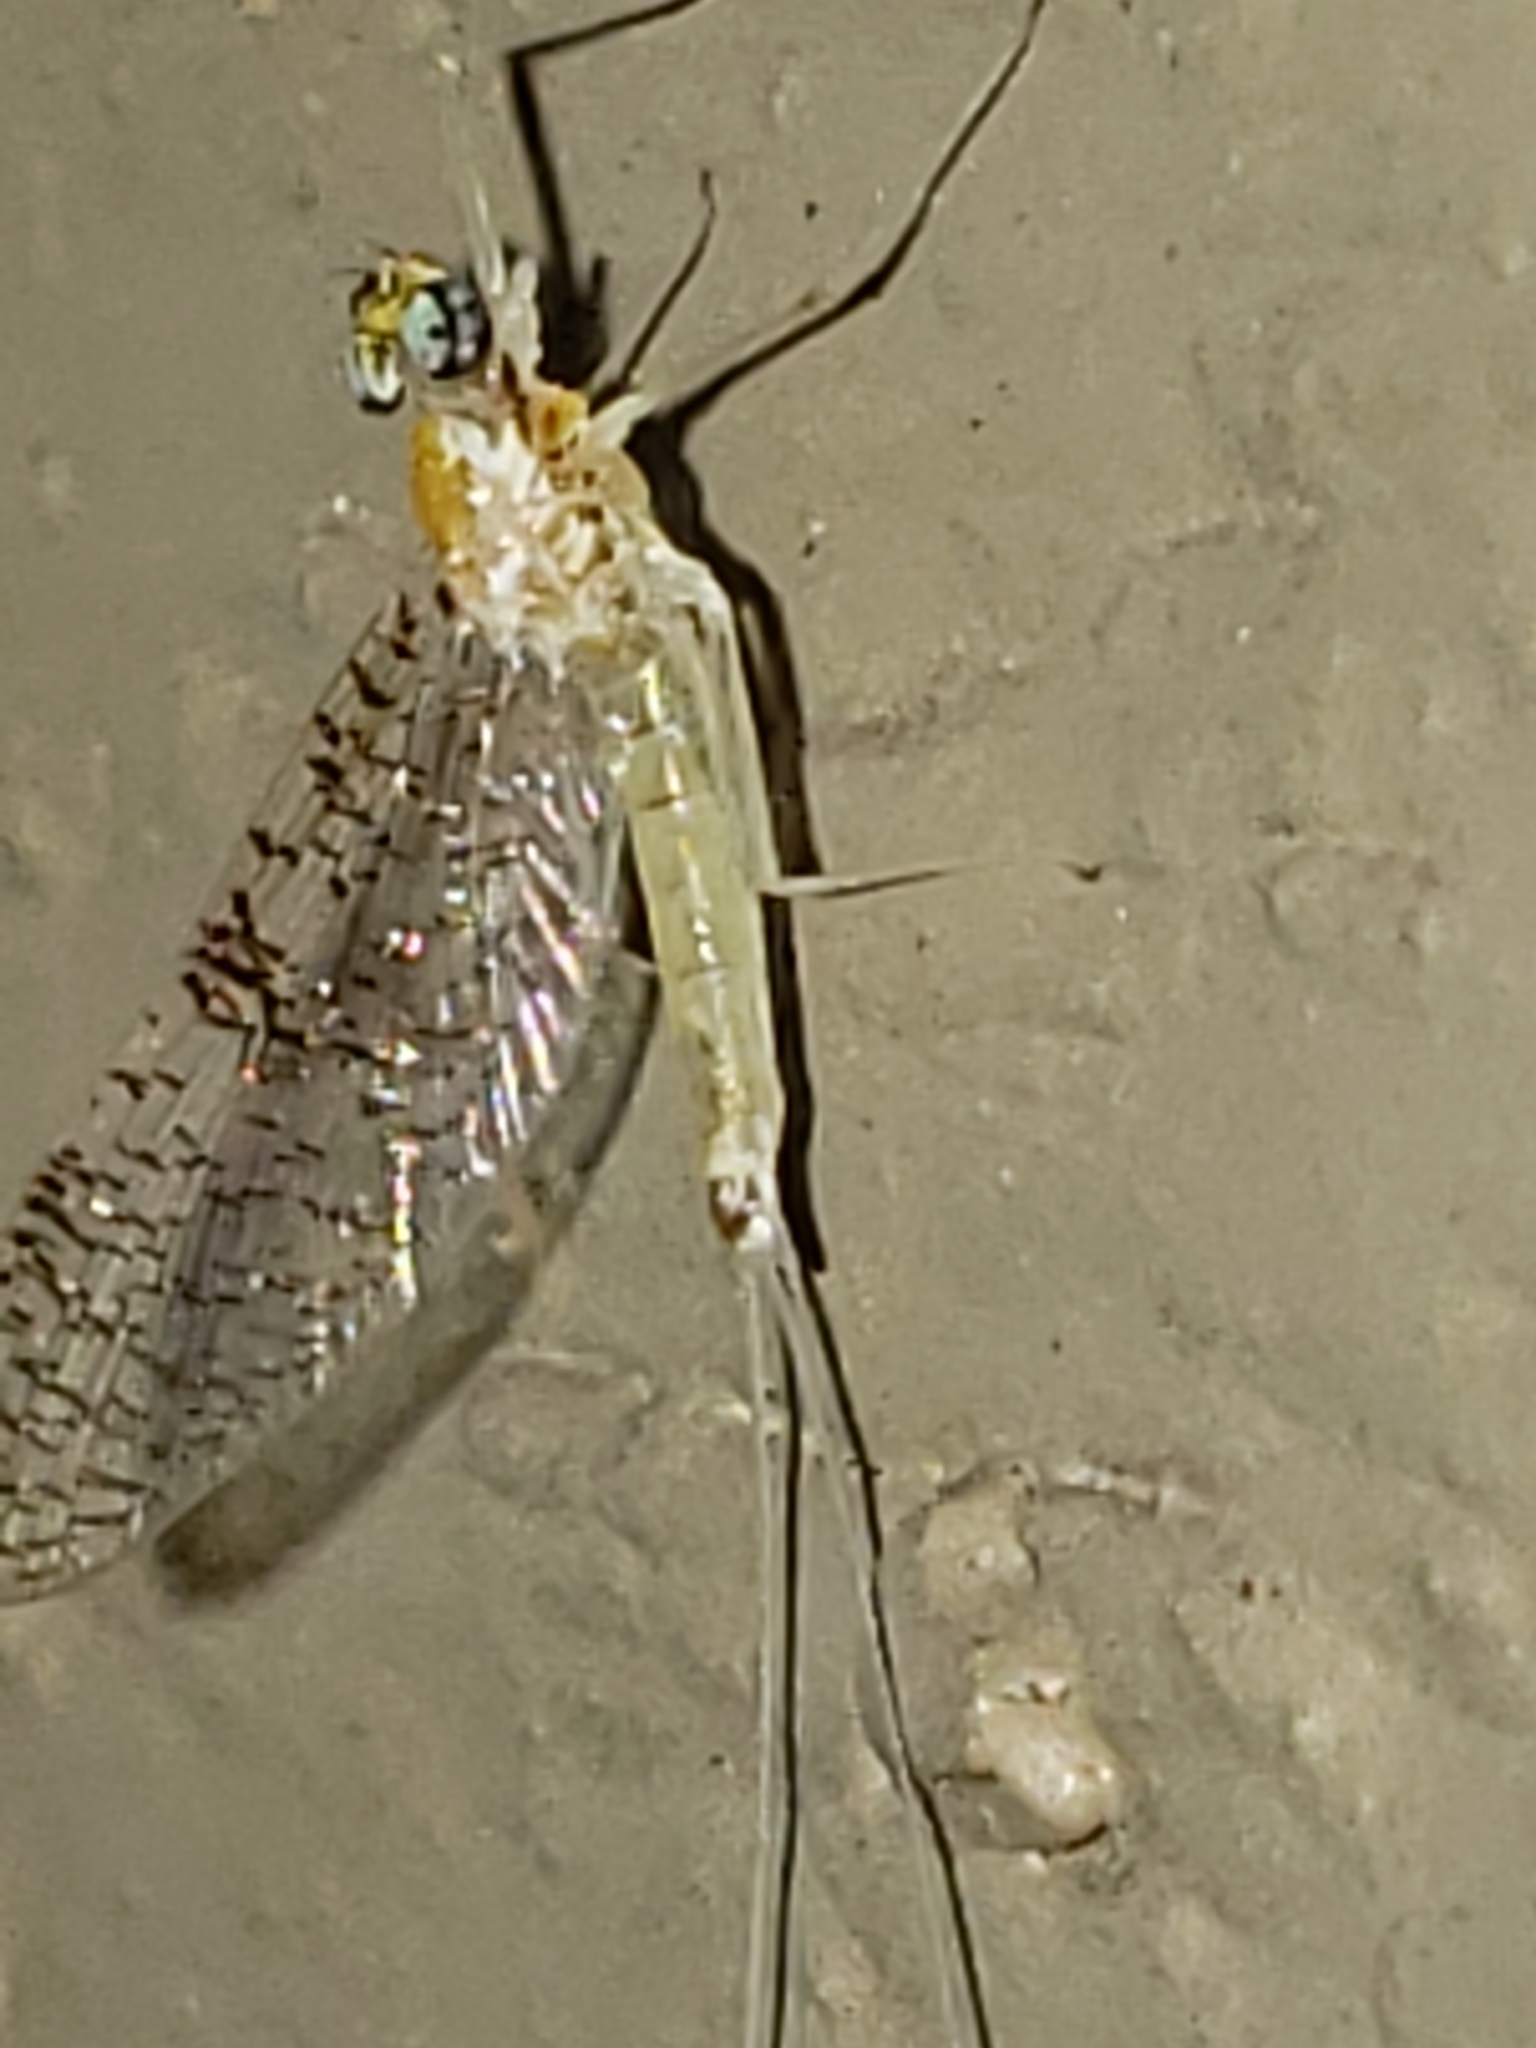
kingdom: Animalia
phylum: Arthropoda
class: Insecta
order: Ephemeroptera
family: Heptageniidae
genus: Leucrocuta
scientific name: Leucrocuta maculipennis
